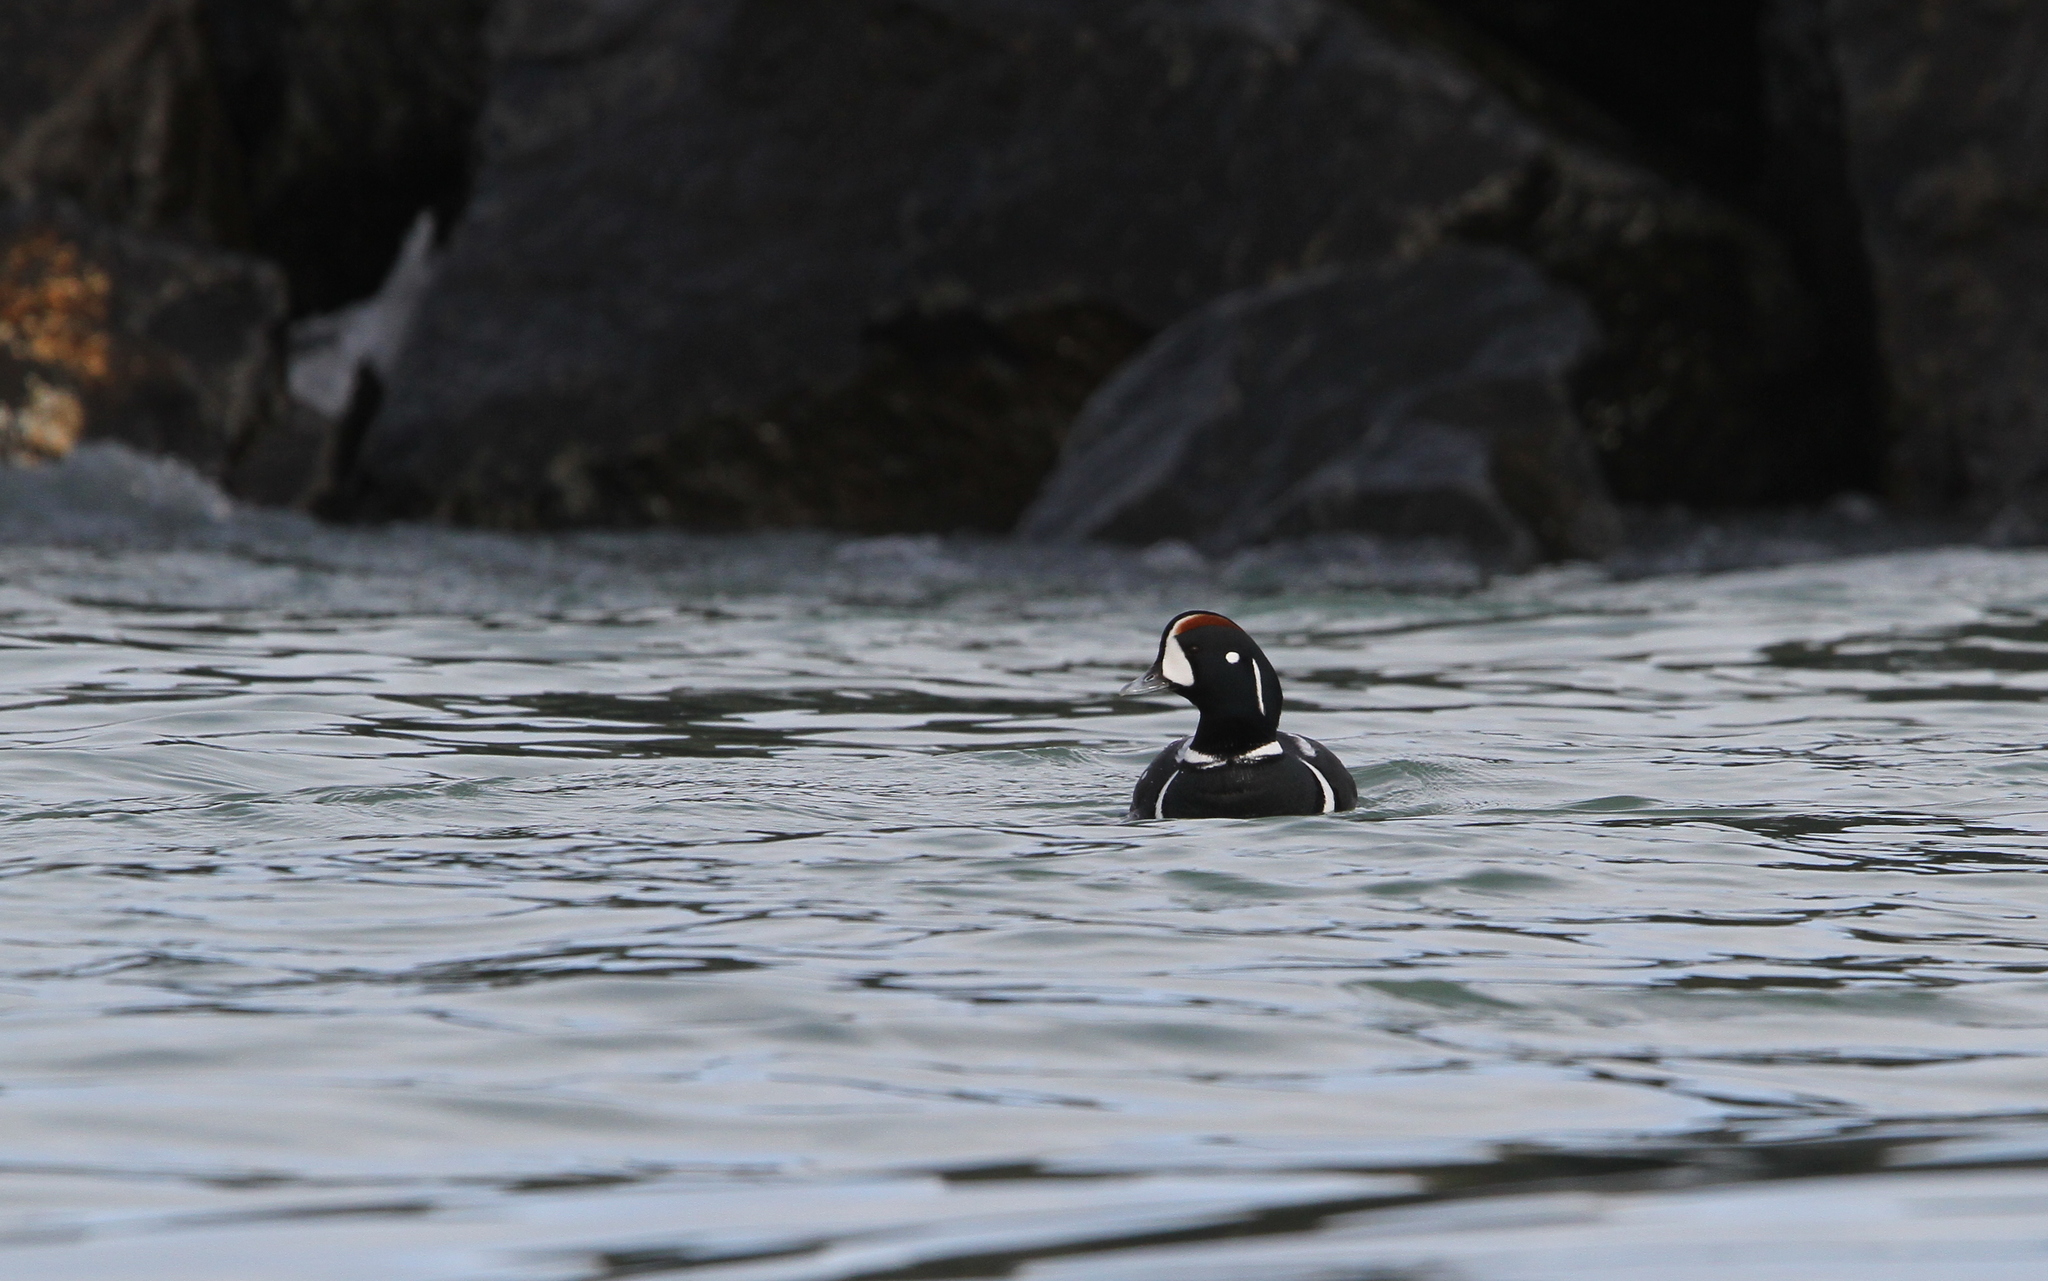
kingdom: Animalia
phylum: Chordata
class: Aves
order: Anseriformes
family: Anatidae
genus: Histrionicus
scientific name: Histrionicus histrionicus
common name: Harlequin duck
